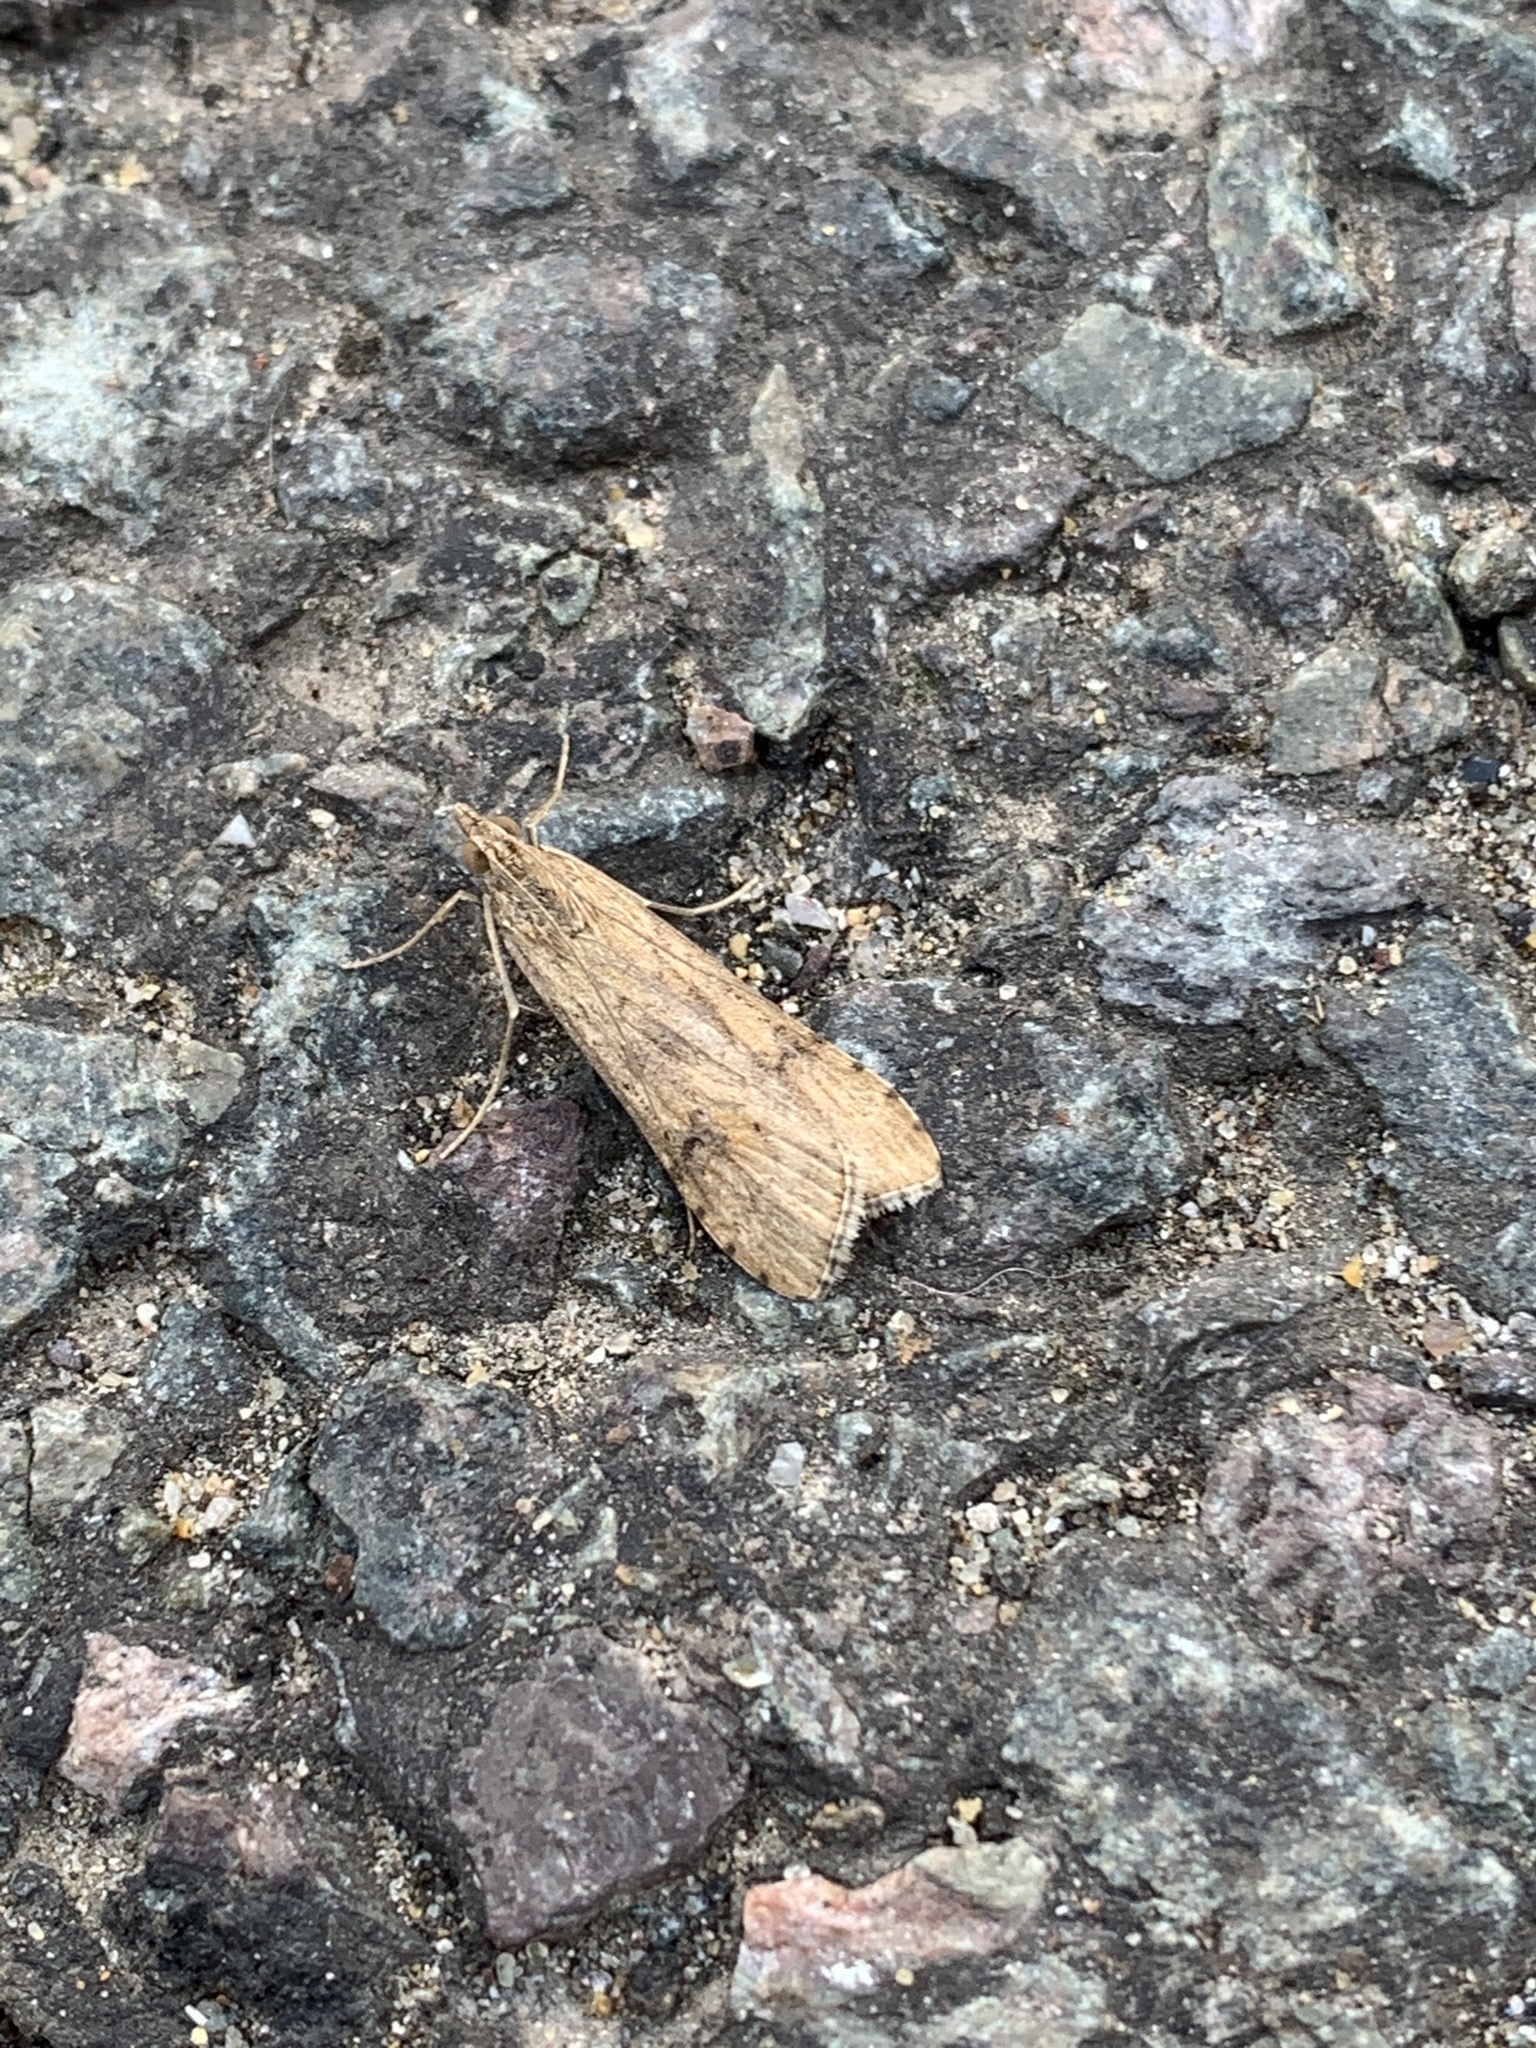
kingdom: Animalia
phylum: Arthropoda
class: Insecta
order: Lepidoptera
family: Crambidae
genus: Nomophila
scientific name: Nomophila noctuella
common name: Rush veneer
